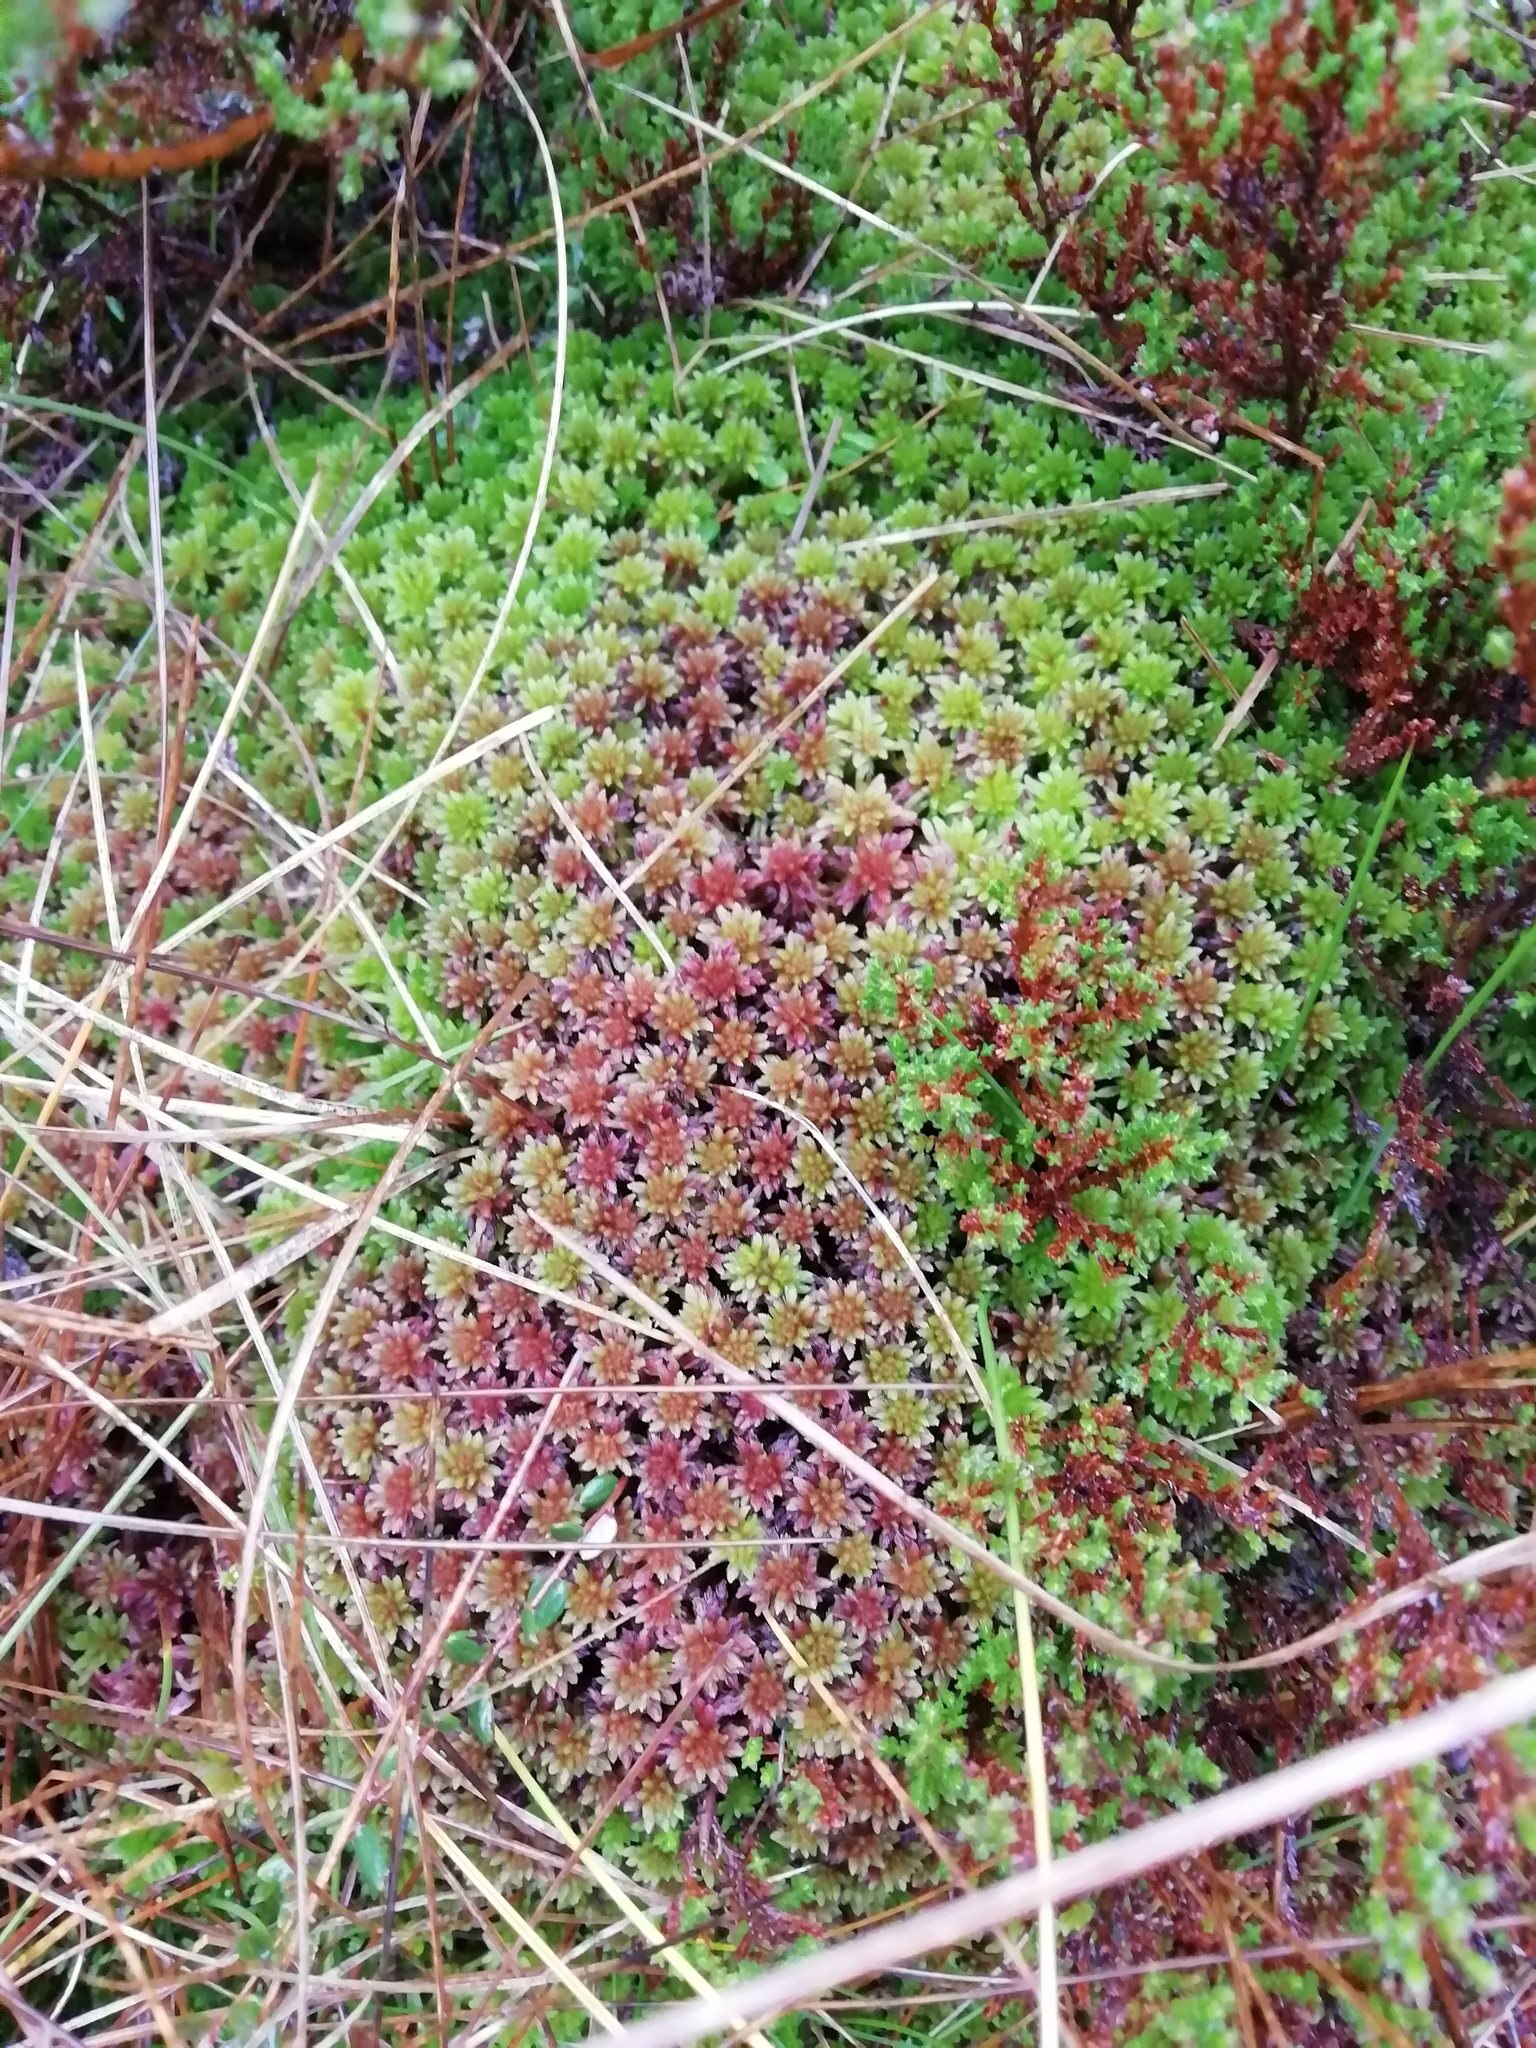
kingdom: Plantae
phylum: Bryophyta
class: Sphagnopsida
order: Sphagnales
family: Sphagnaceae
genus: Sphagnum
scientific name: Sphagnum capillifolium
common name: Small red peat moss
